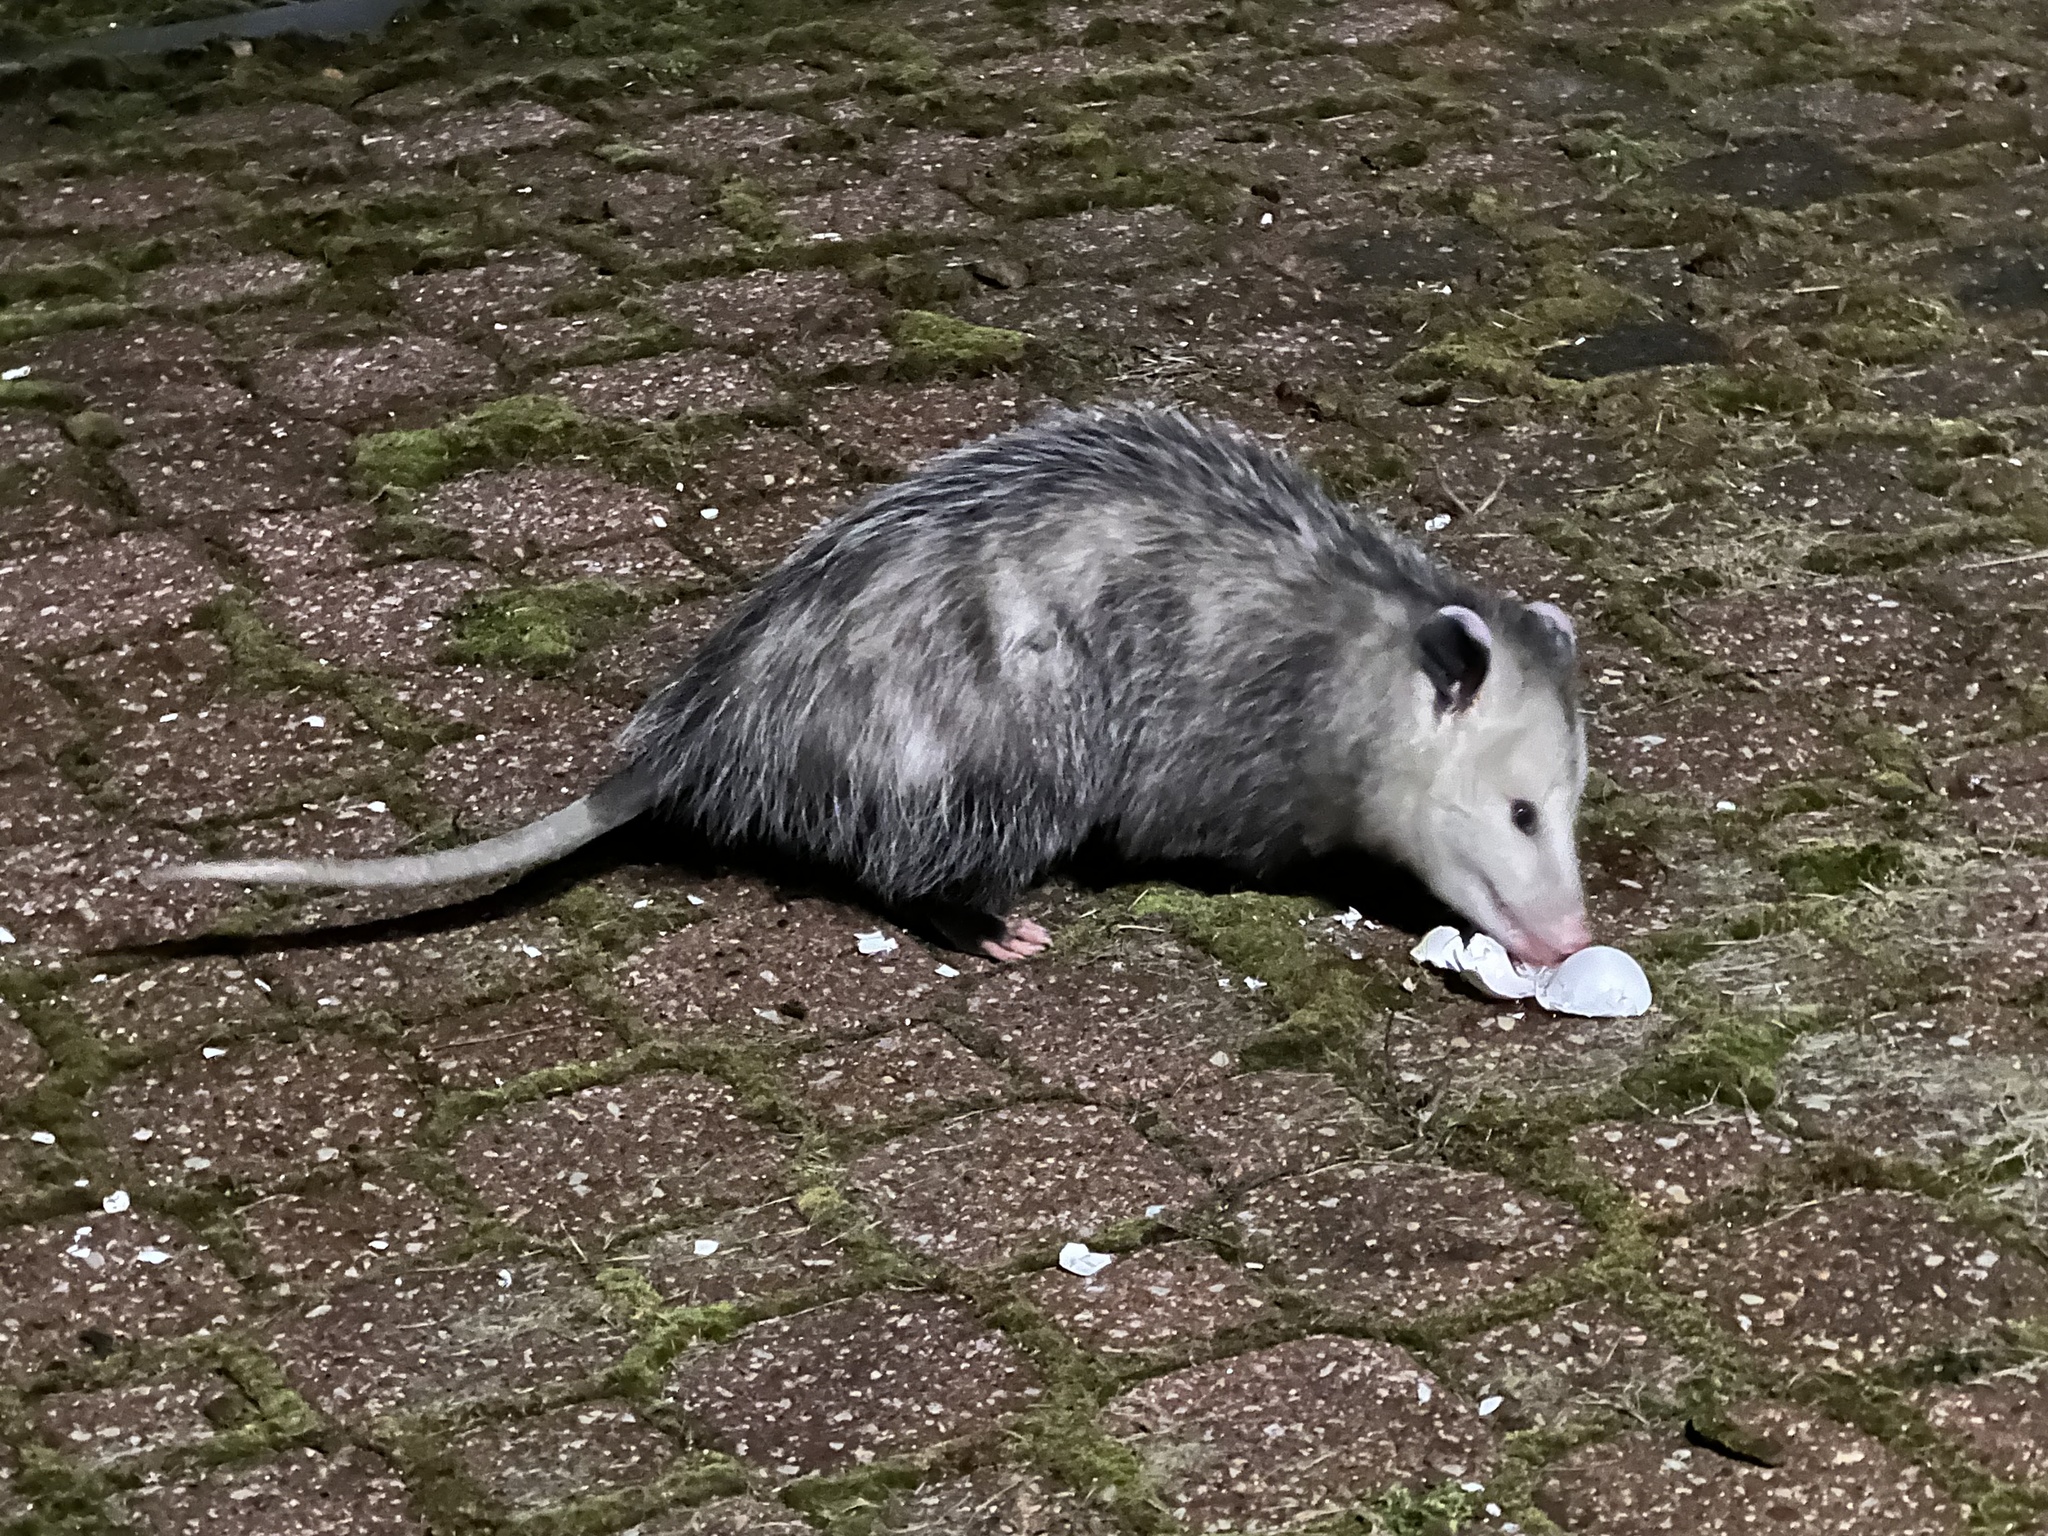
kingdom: Animalia
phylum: Chordata
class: Mammalia
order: Didelphimorphia
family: Didelphidae
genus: Didelphis
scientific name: Didelphis virginiana
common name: Virginia opossum
